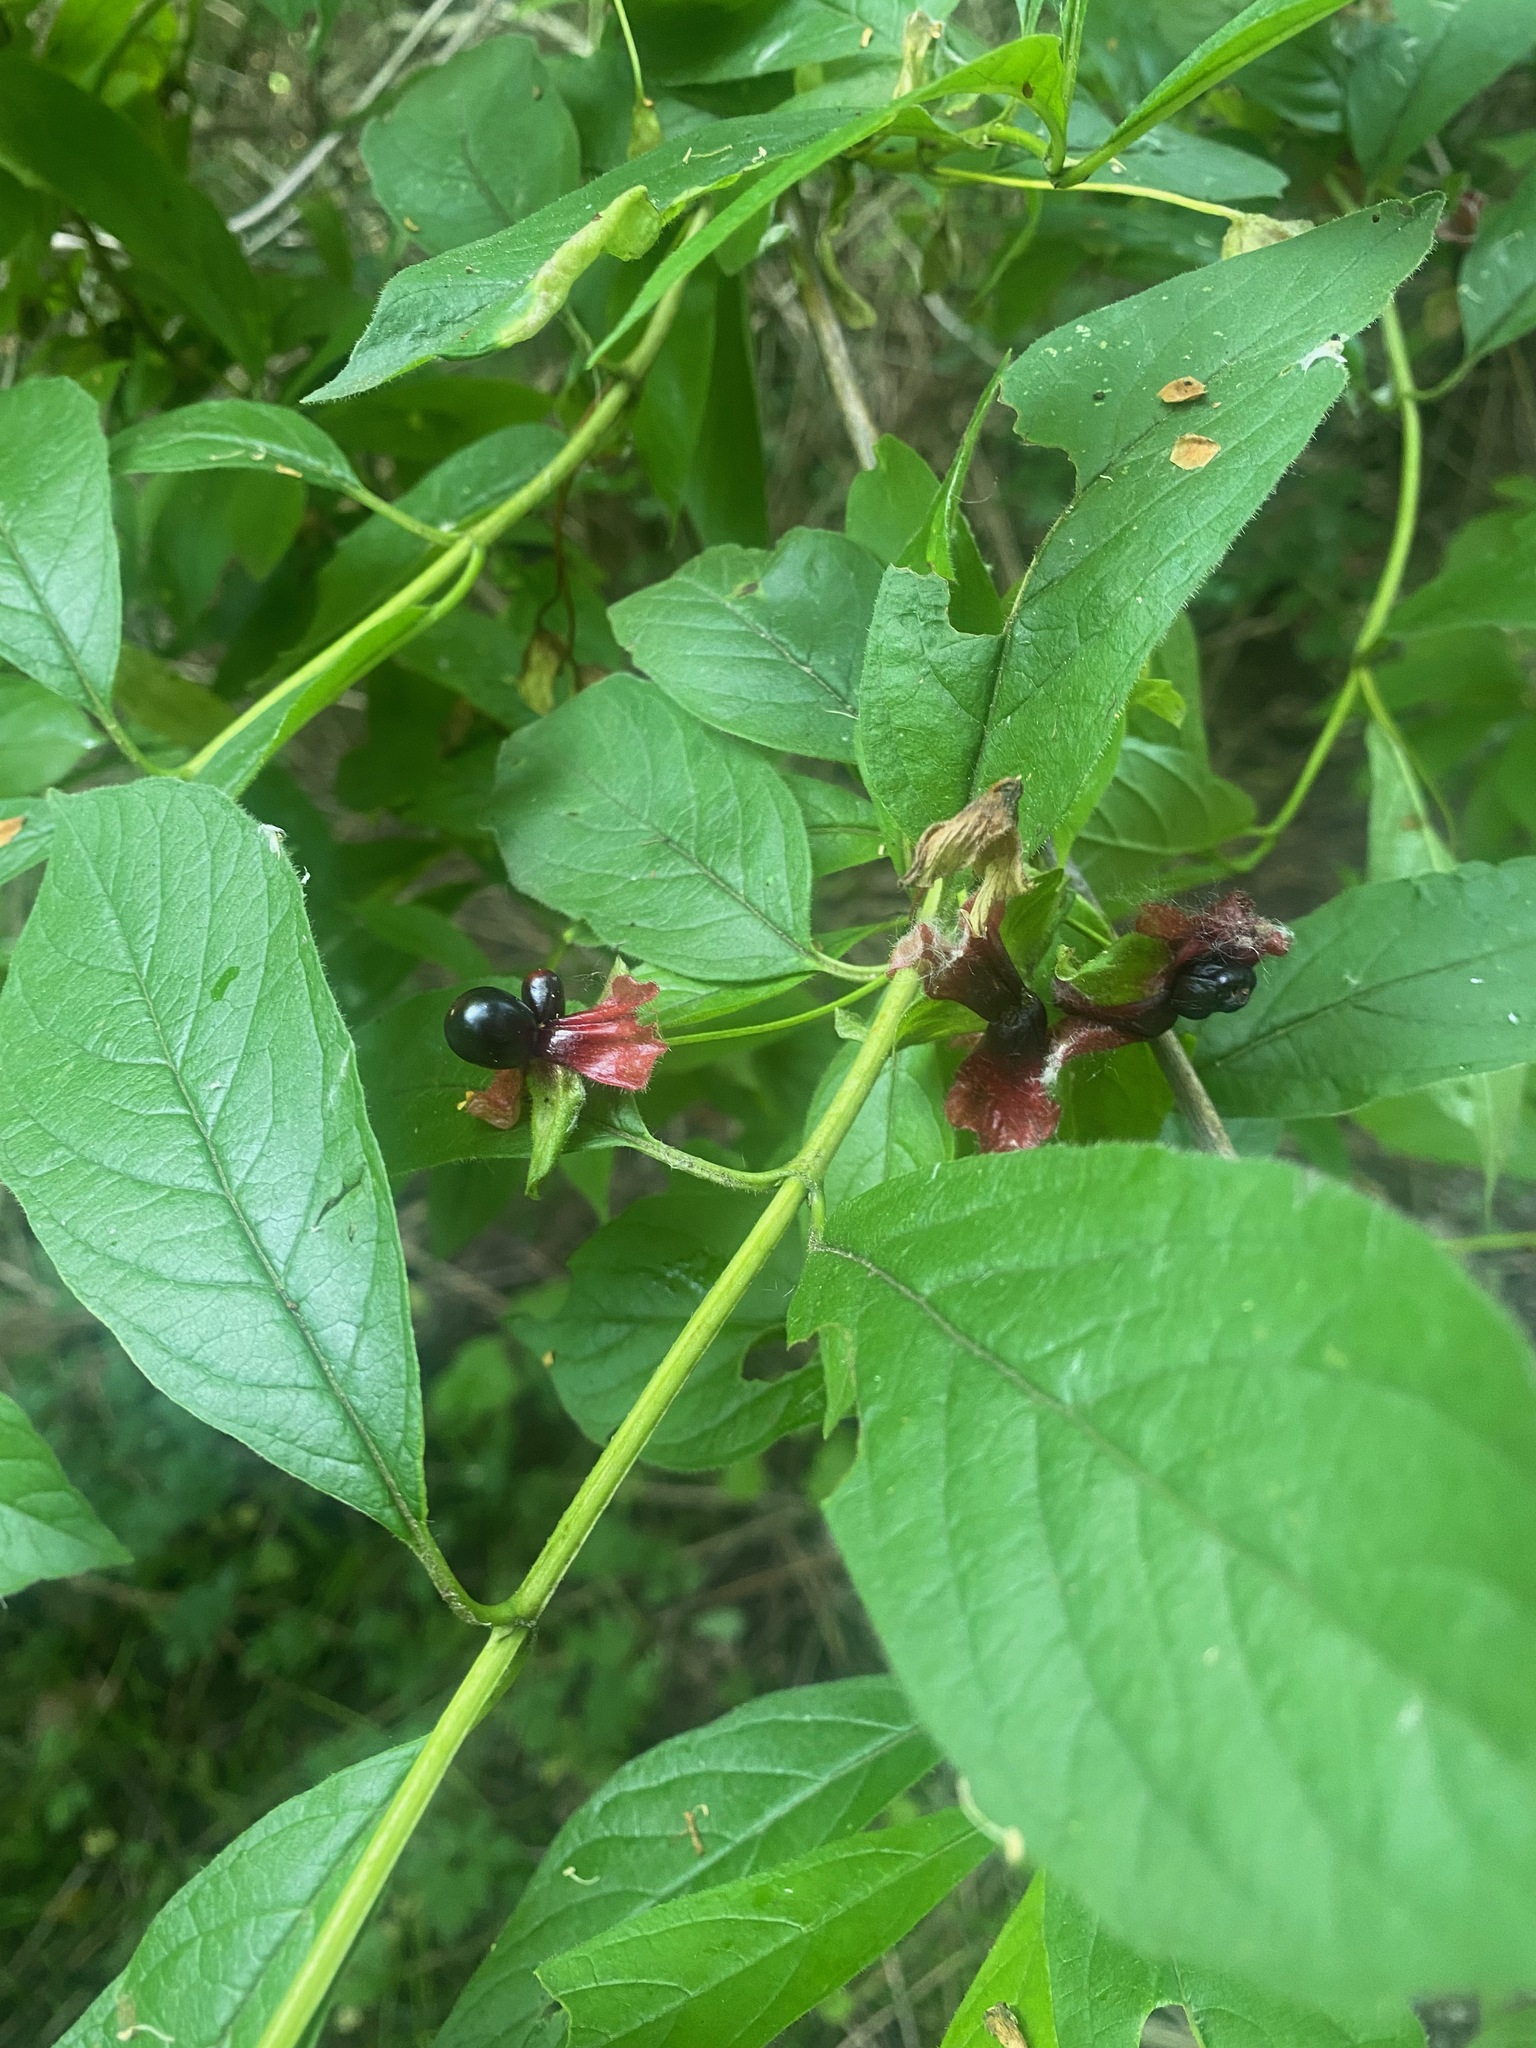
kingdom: Plantae
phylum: Tracheophyta
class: Magnoliopsida
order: Dipsacales
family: Caprifoliaceae
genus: Lonicera
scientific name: Lonicera involucrata
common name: Californian honeysuckle
